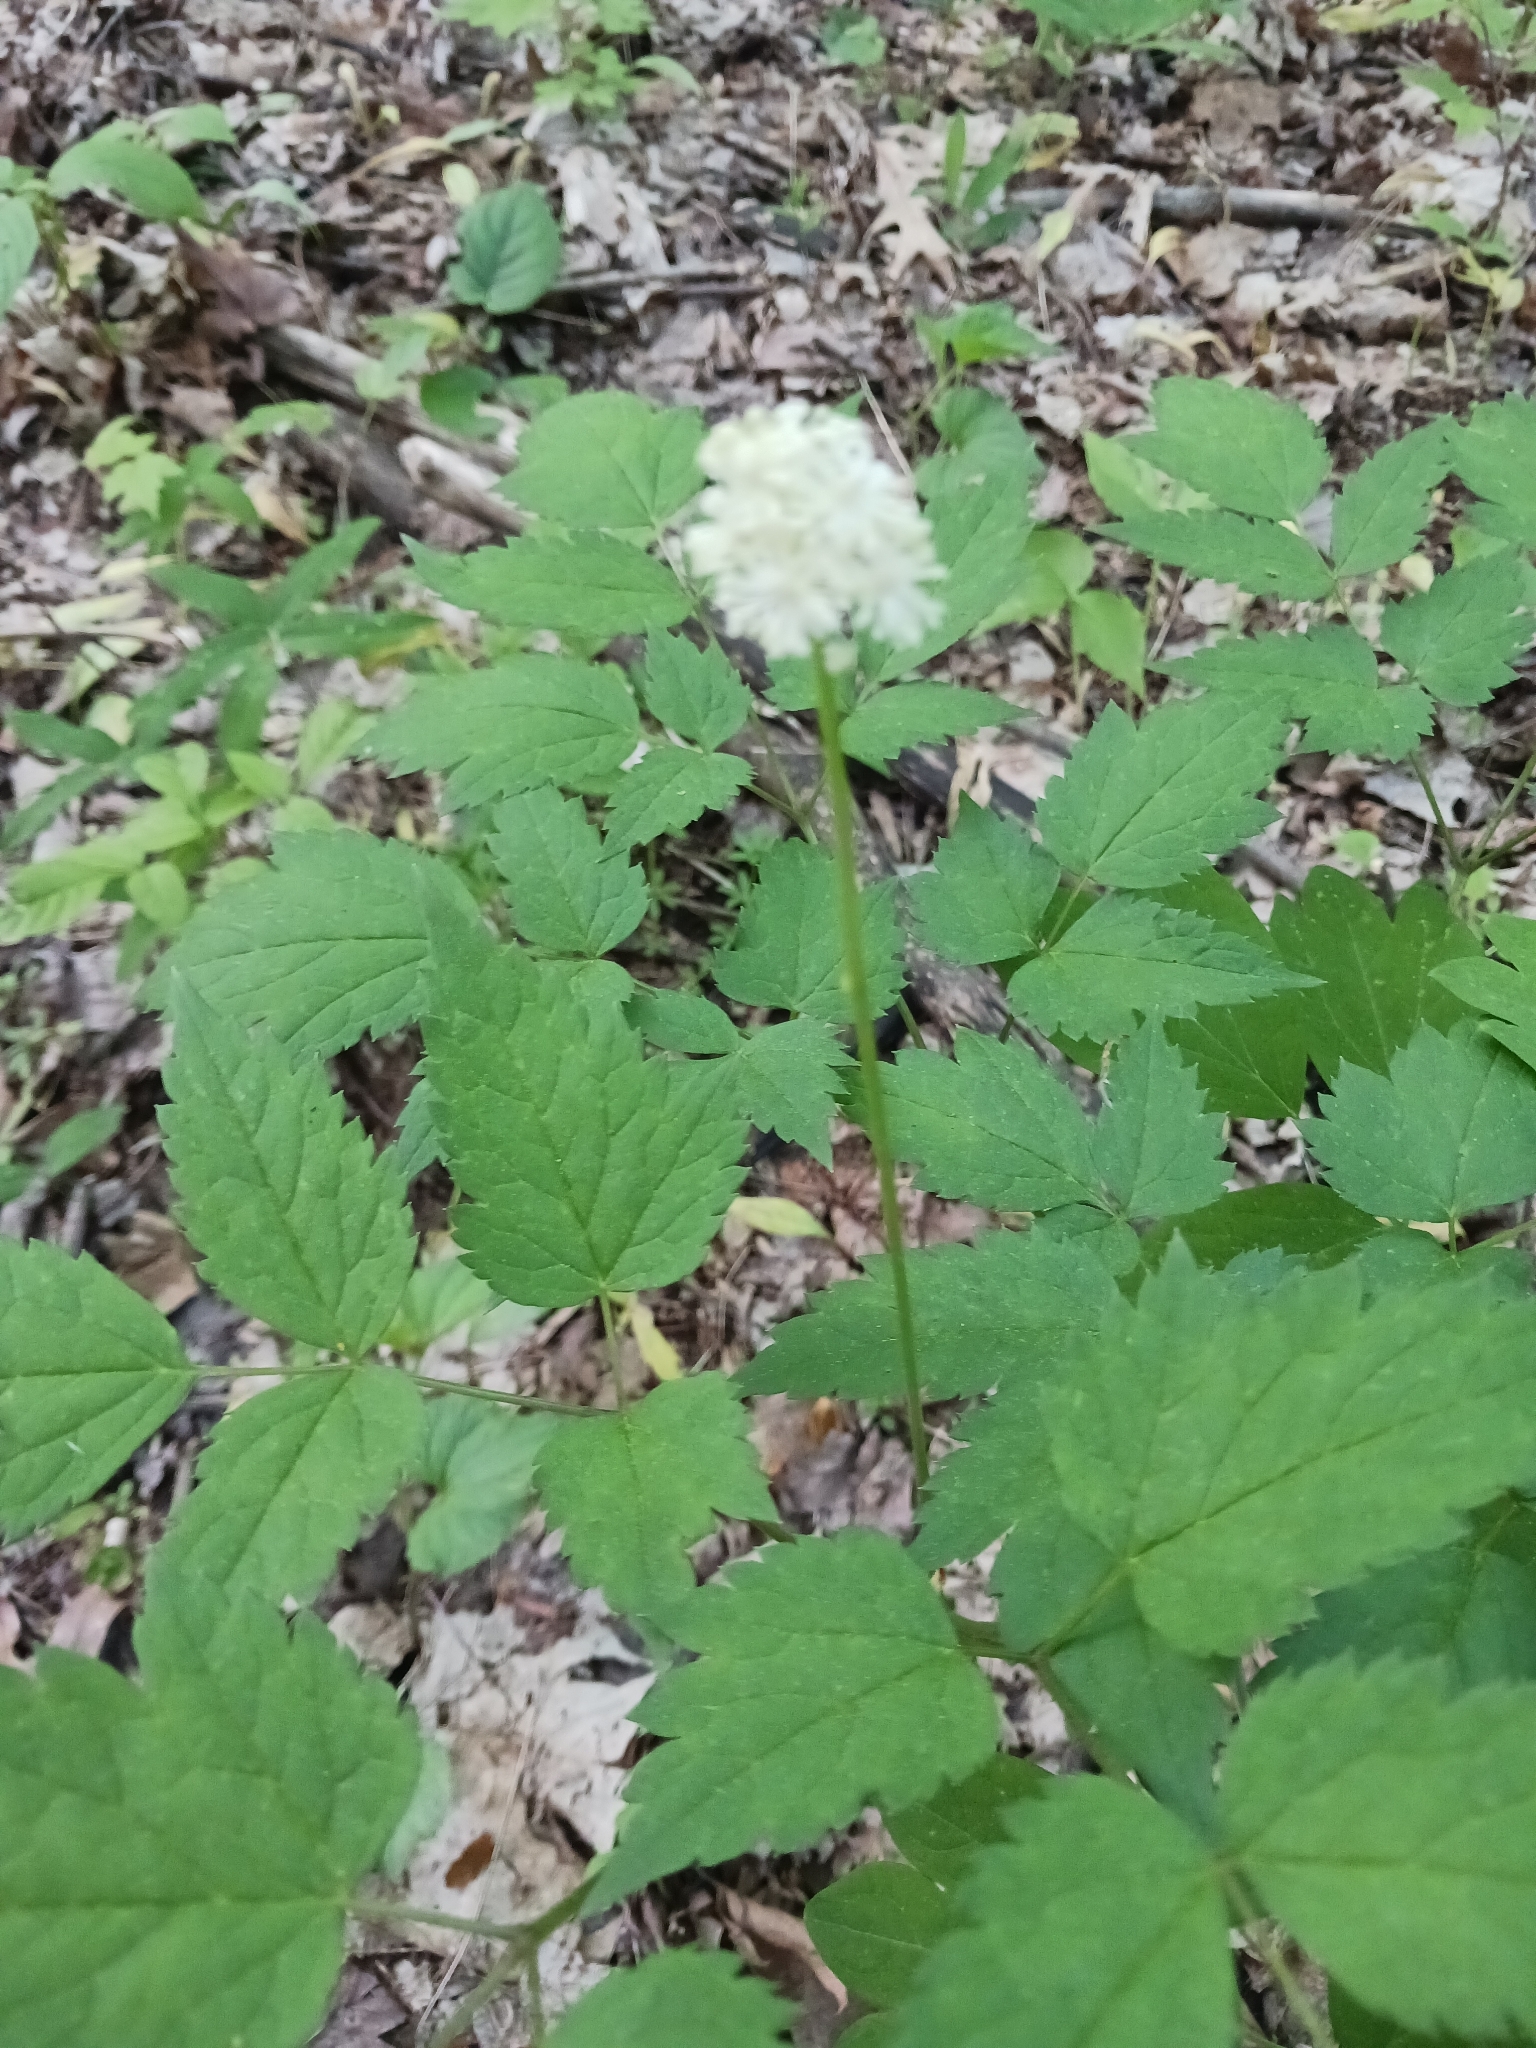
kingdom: Plantae
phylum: Tracheophyta
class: Magnoliopsida
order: Ranunculales
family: Ranunculaceae
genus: Actaea
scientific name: Actaea pachypoda
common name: Doll's-eyes
